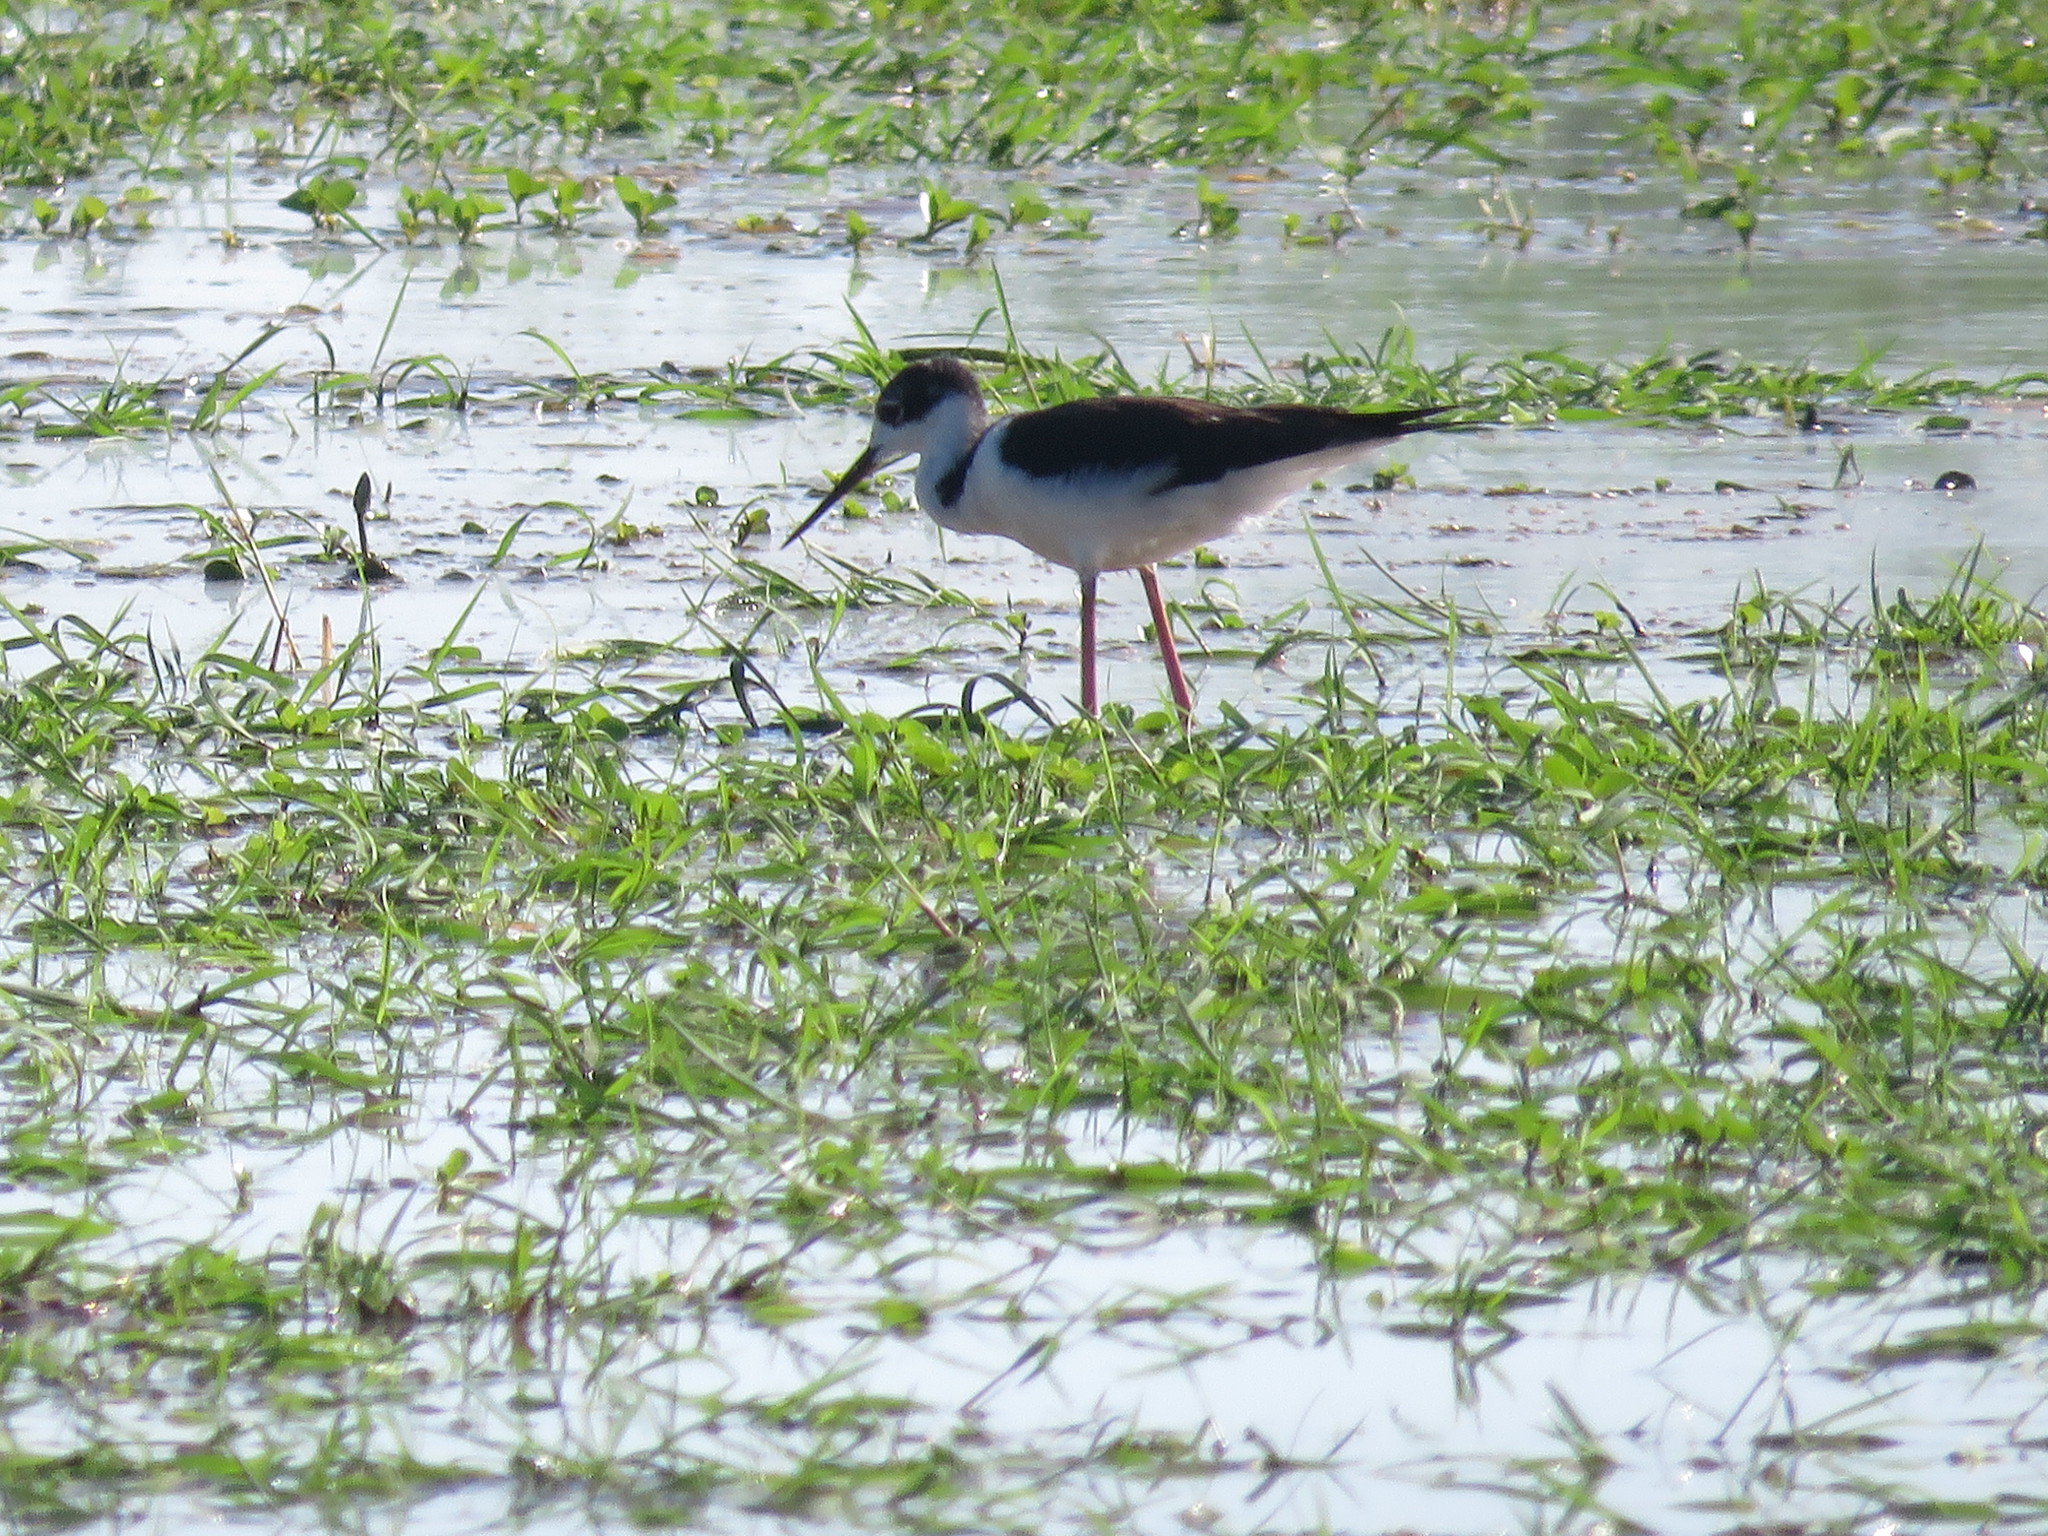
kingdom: Animalia
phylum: Chordata
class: Aves
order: Charadriiformes
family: Recurvirostridae
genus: Himantopus
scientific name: Himantopus mexicanus
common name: Black-necked stilt
